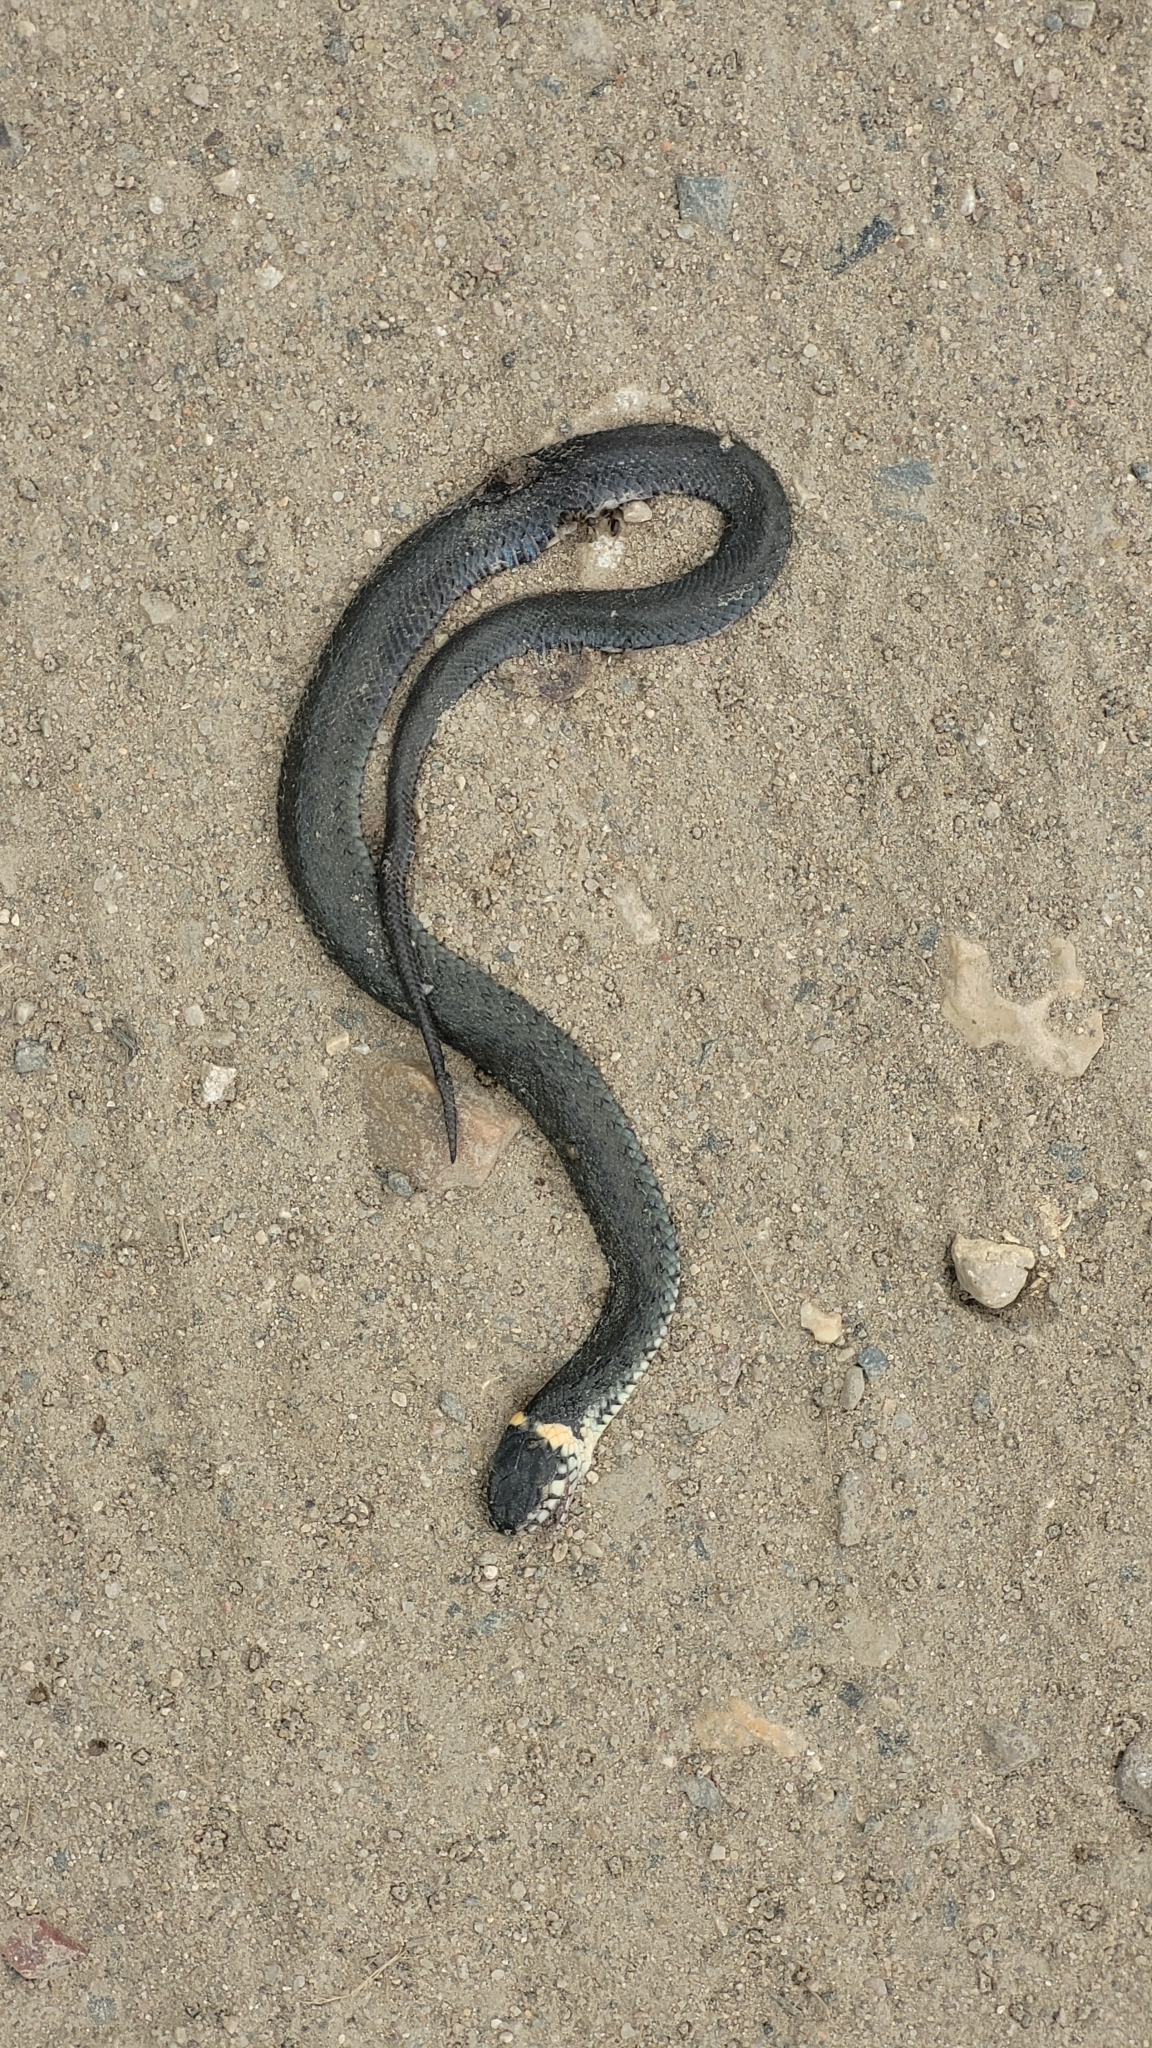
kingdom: Animalia
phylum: Chordata
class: Squamata
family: Colubridae
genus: Natrix
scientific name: Natrix natrix
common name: Grass snake
